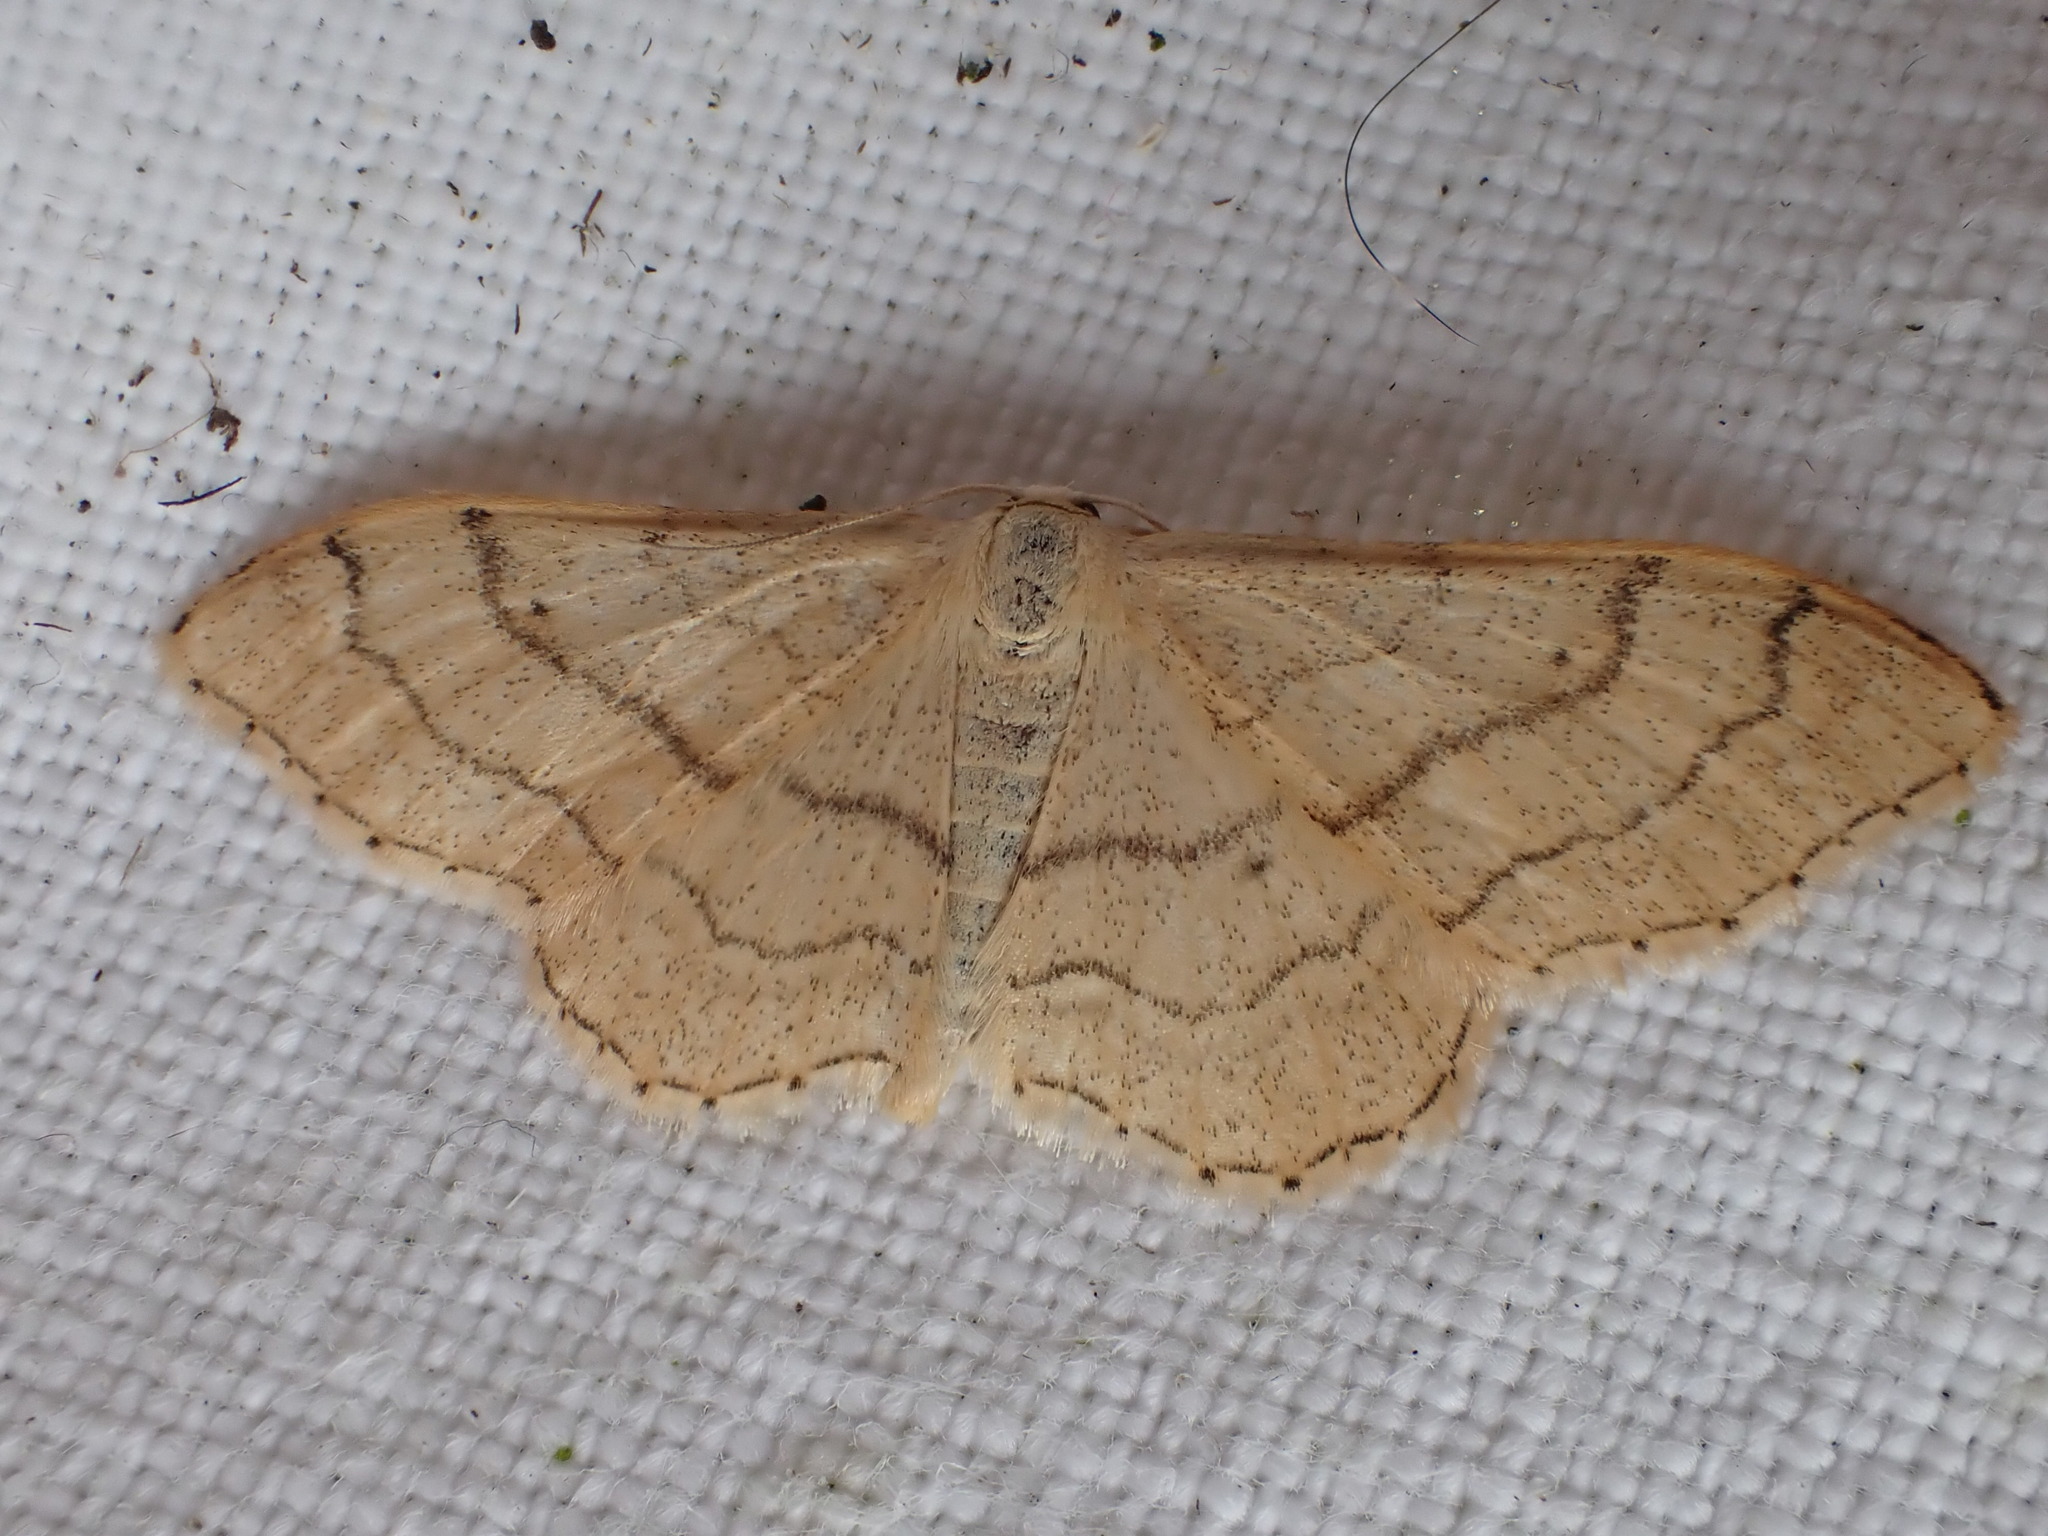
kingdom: Animalia
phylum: Arthropoda
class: Insecta
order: Lepidoptera
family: Geometridae
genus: Idaea
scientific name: Idaea aversata
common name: Riband wave
